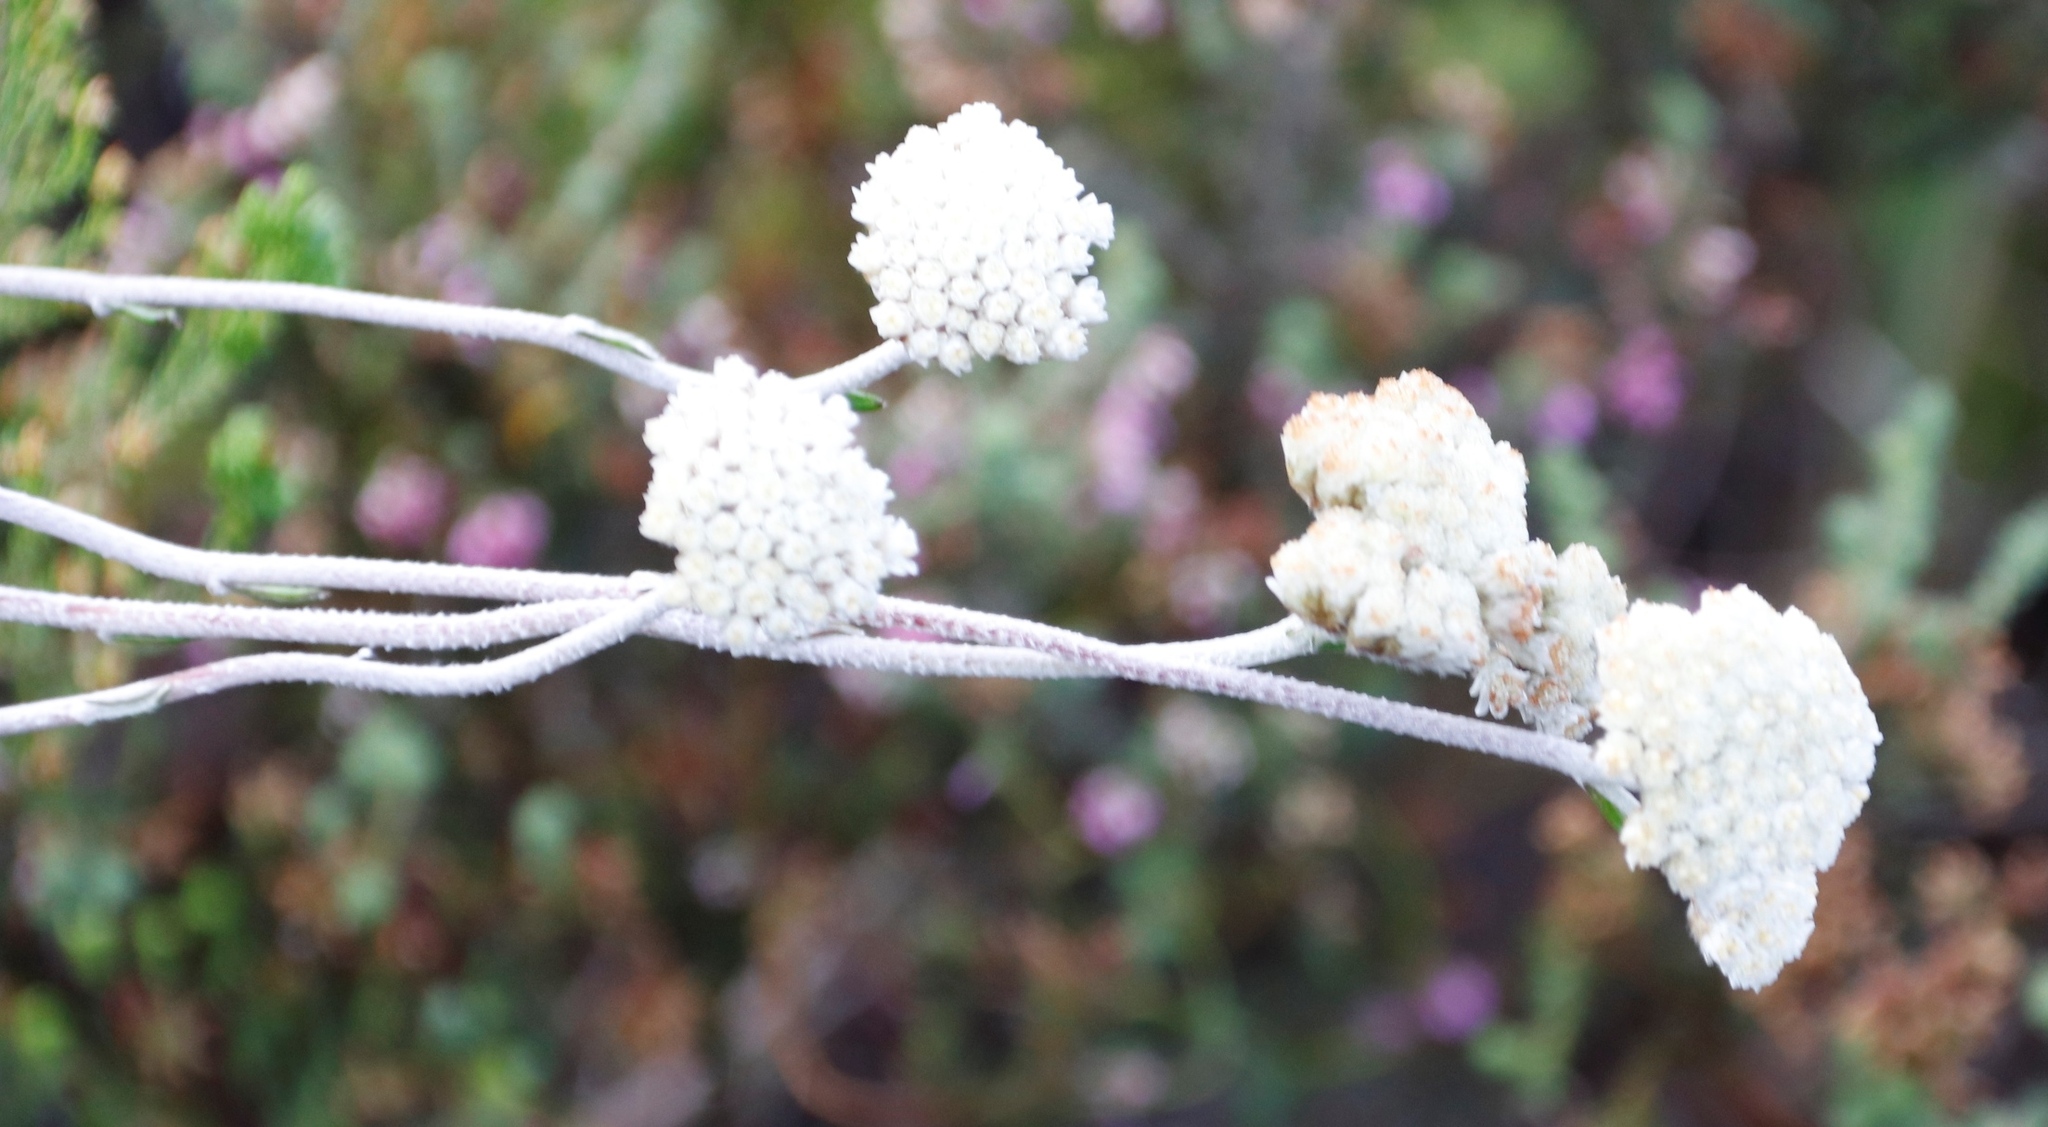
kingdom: Plantae
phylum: Tracheophyta
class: Magnoliopsida
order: Asterales
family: Asteraceae
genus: Anaxeton
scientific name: Anaxeton laeve
